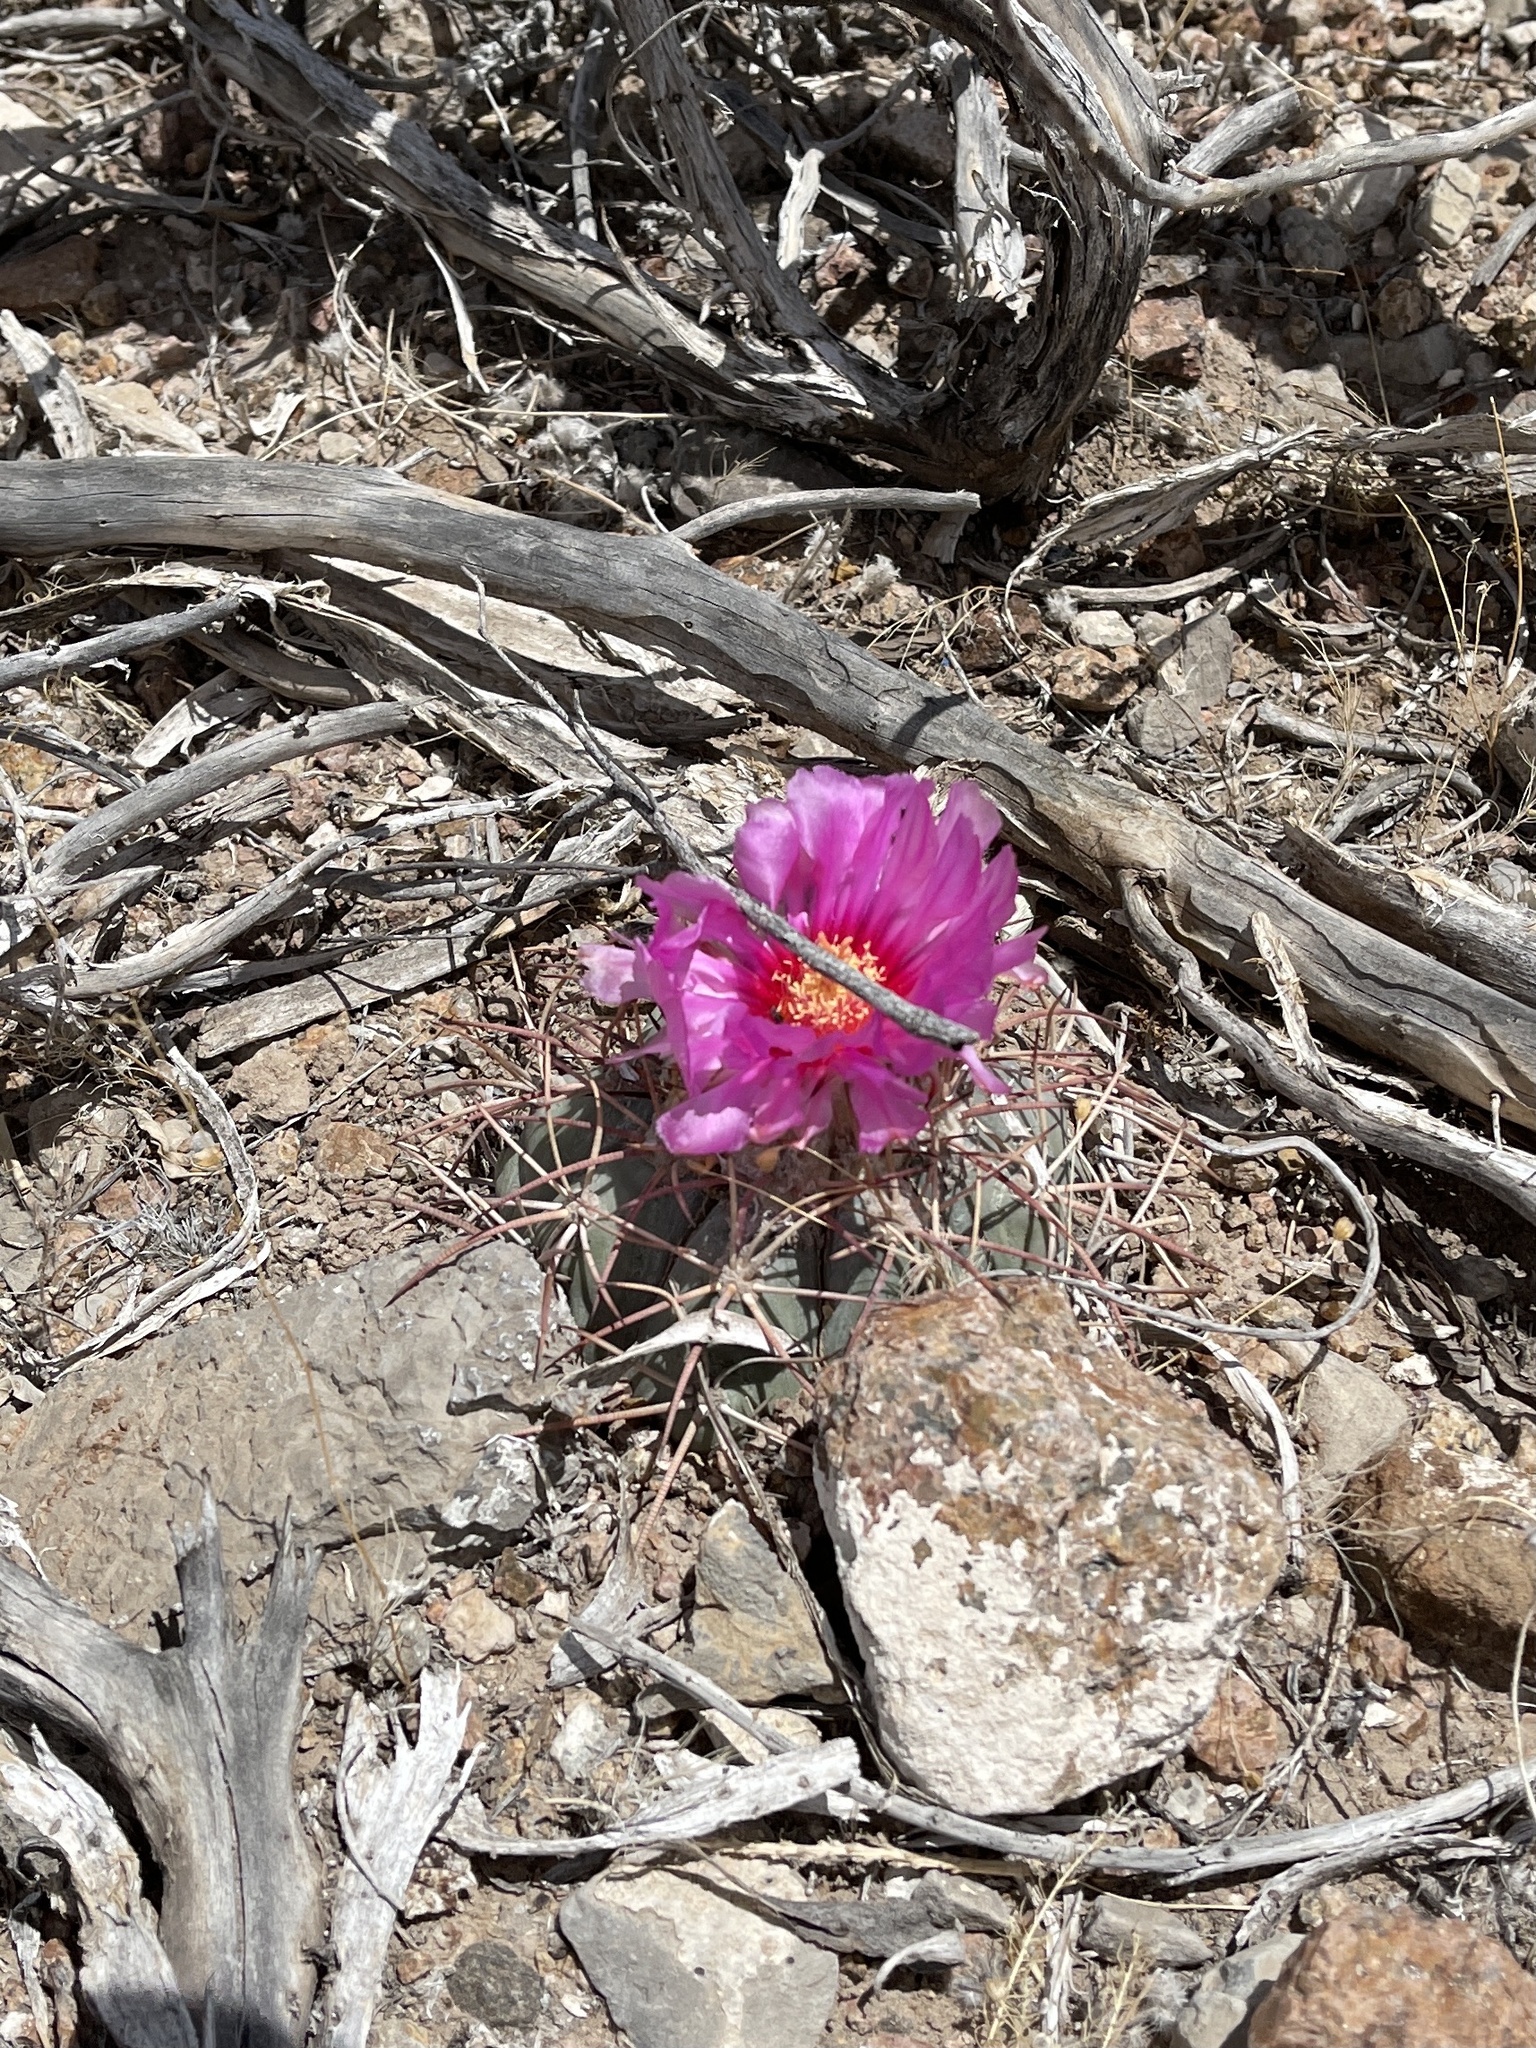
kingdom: Plantae
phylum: Tracheophyta
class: Magnoliopsida
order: Caryophyllales
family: Cactaceae
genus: Echinocactus
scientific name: Echinocactus horizonthalonius
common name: Devilshead
